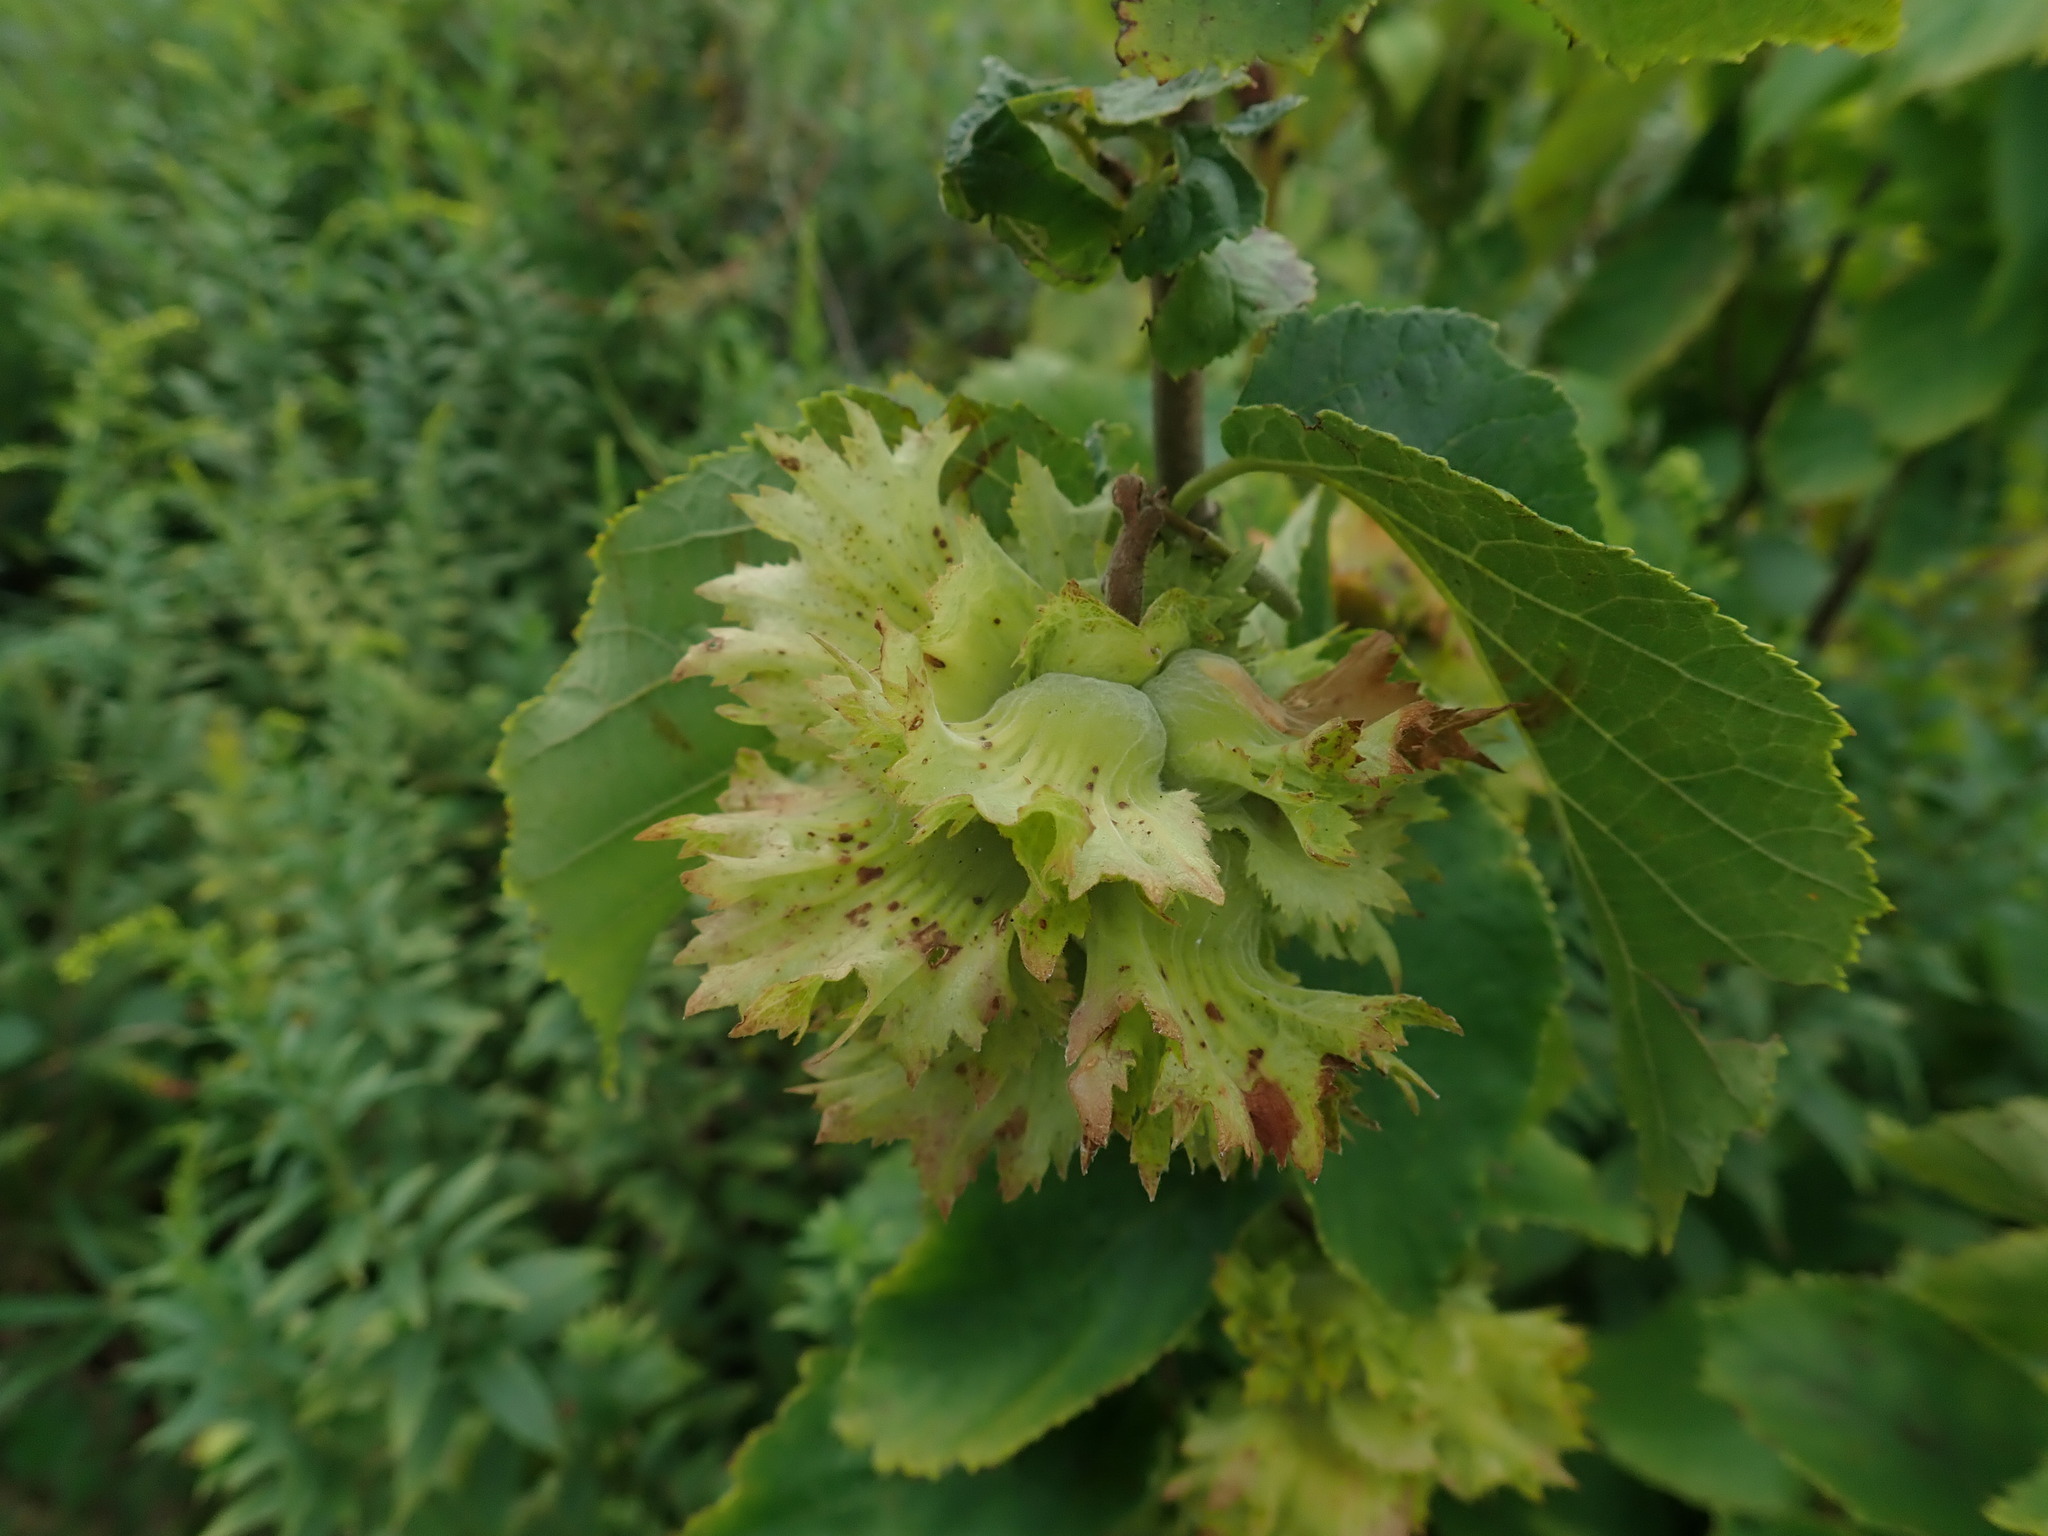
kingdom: Plantae
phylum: Tracheophyta
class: Magnoliopsida
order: Fagales
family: Betulaceae
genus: Corylus
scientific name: Corylus americana
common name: American hazel
